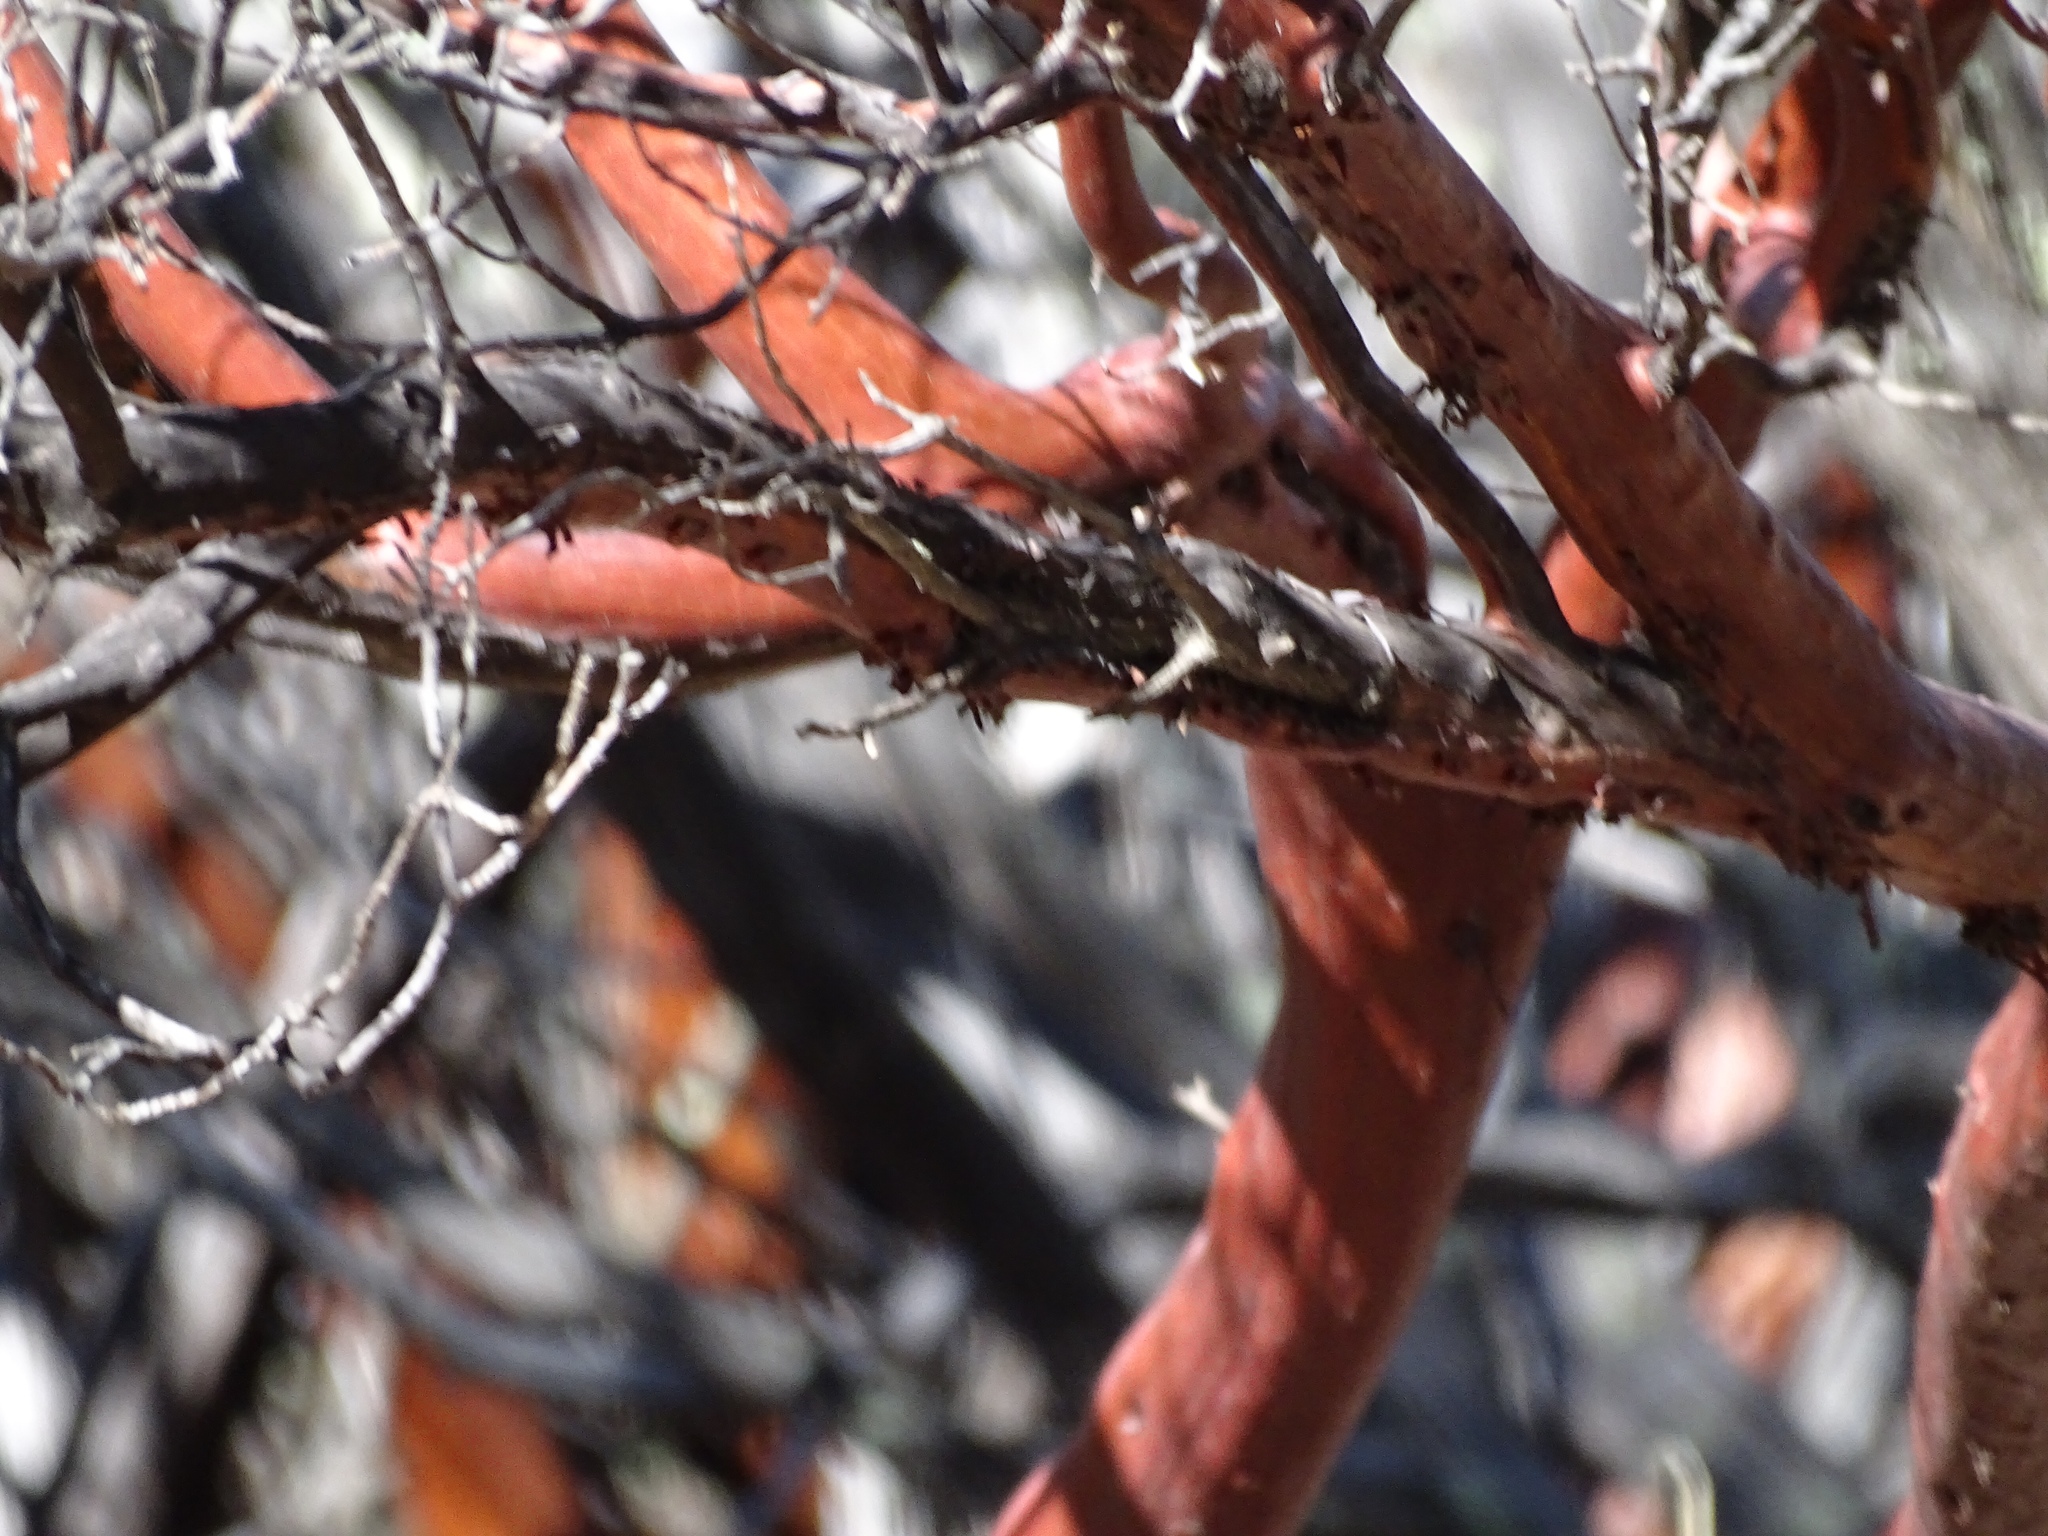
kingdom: Plantae
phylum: Tracheophyta
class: Magnoliopsida
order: Ericales
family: Ericaceae
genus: Arctostaphylos
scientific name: Arctostaphylos pungens
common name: Mexican manzanita
